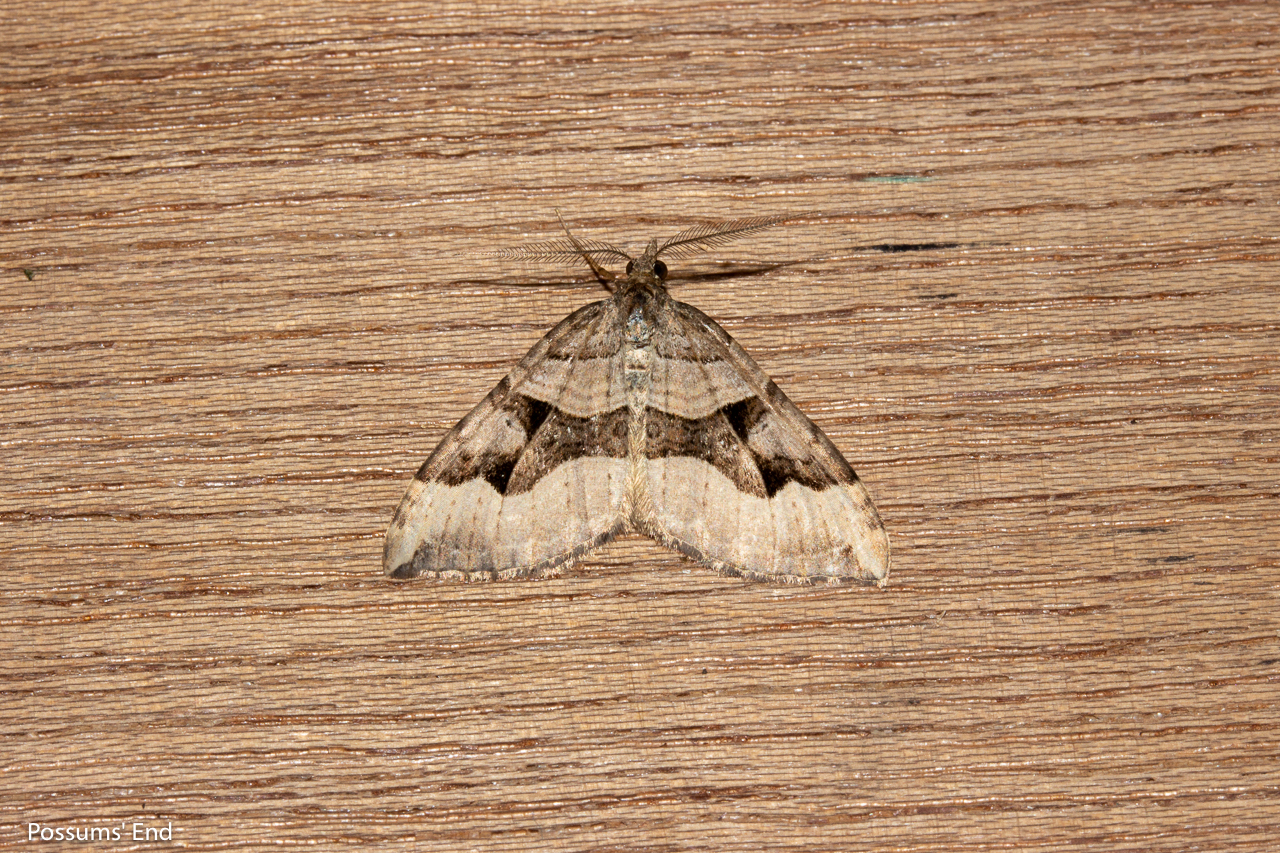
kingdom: Animalia
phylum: Arthropoda
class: Insecta
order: Lepidoptera
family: Geometridae
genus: Xanthorhoe
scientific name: Xanthorhoe semifissata
